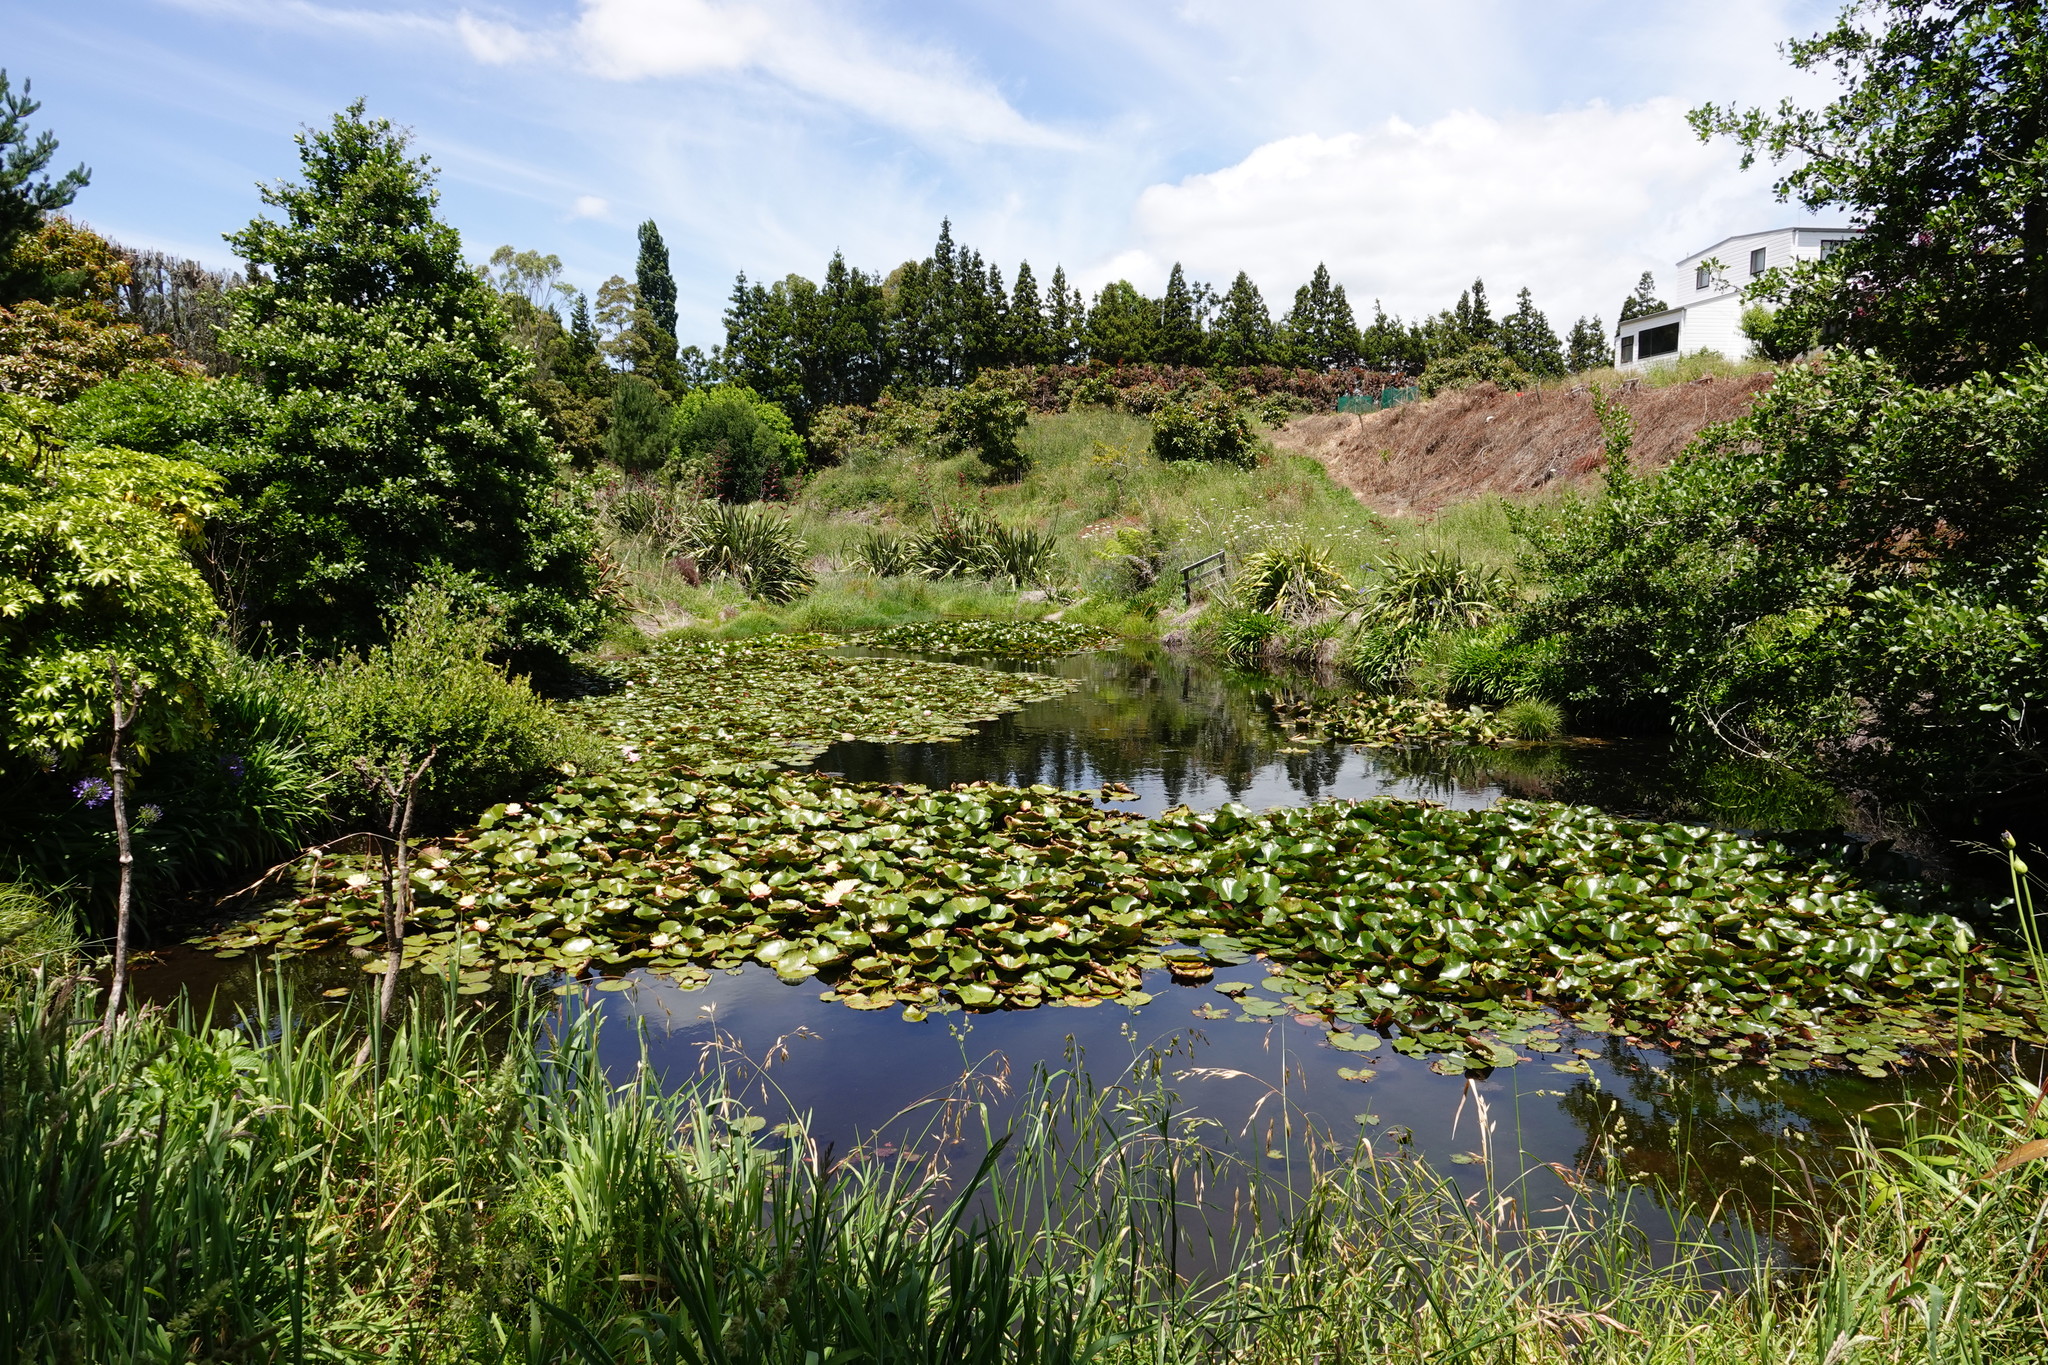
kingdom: Plantae
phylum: Tracheophyta
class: Magnoliopsida
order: Apiales
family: Araliaceae
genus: Fatsia
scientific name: Fatsia japonica
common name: Fatsia
